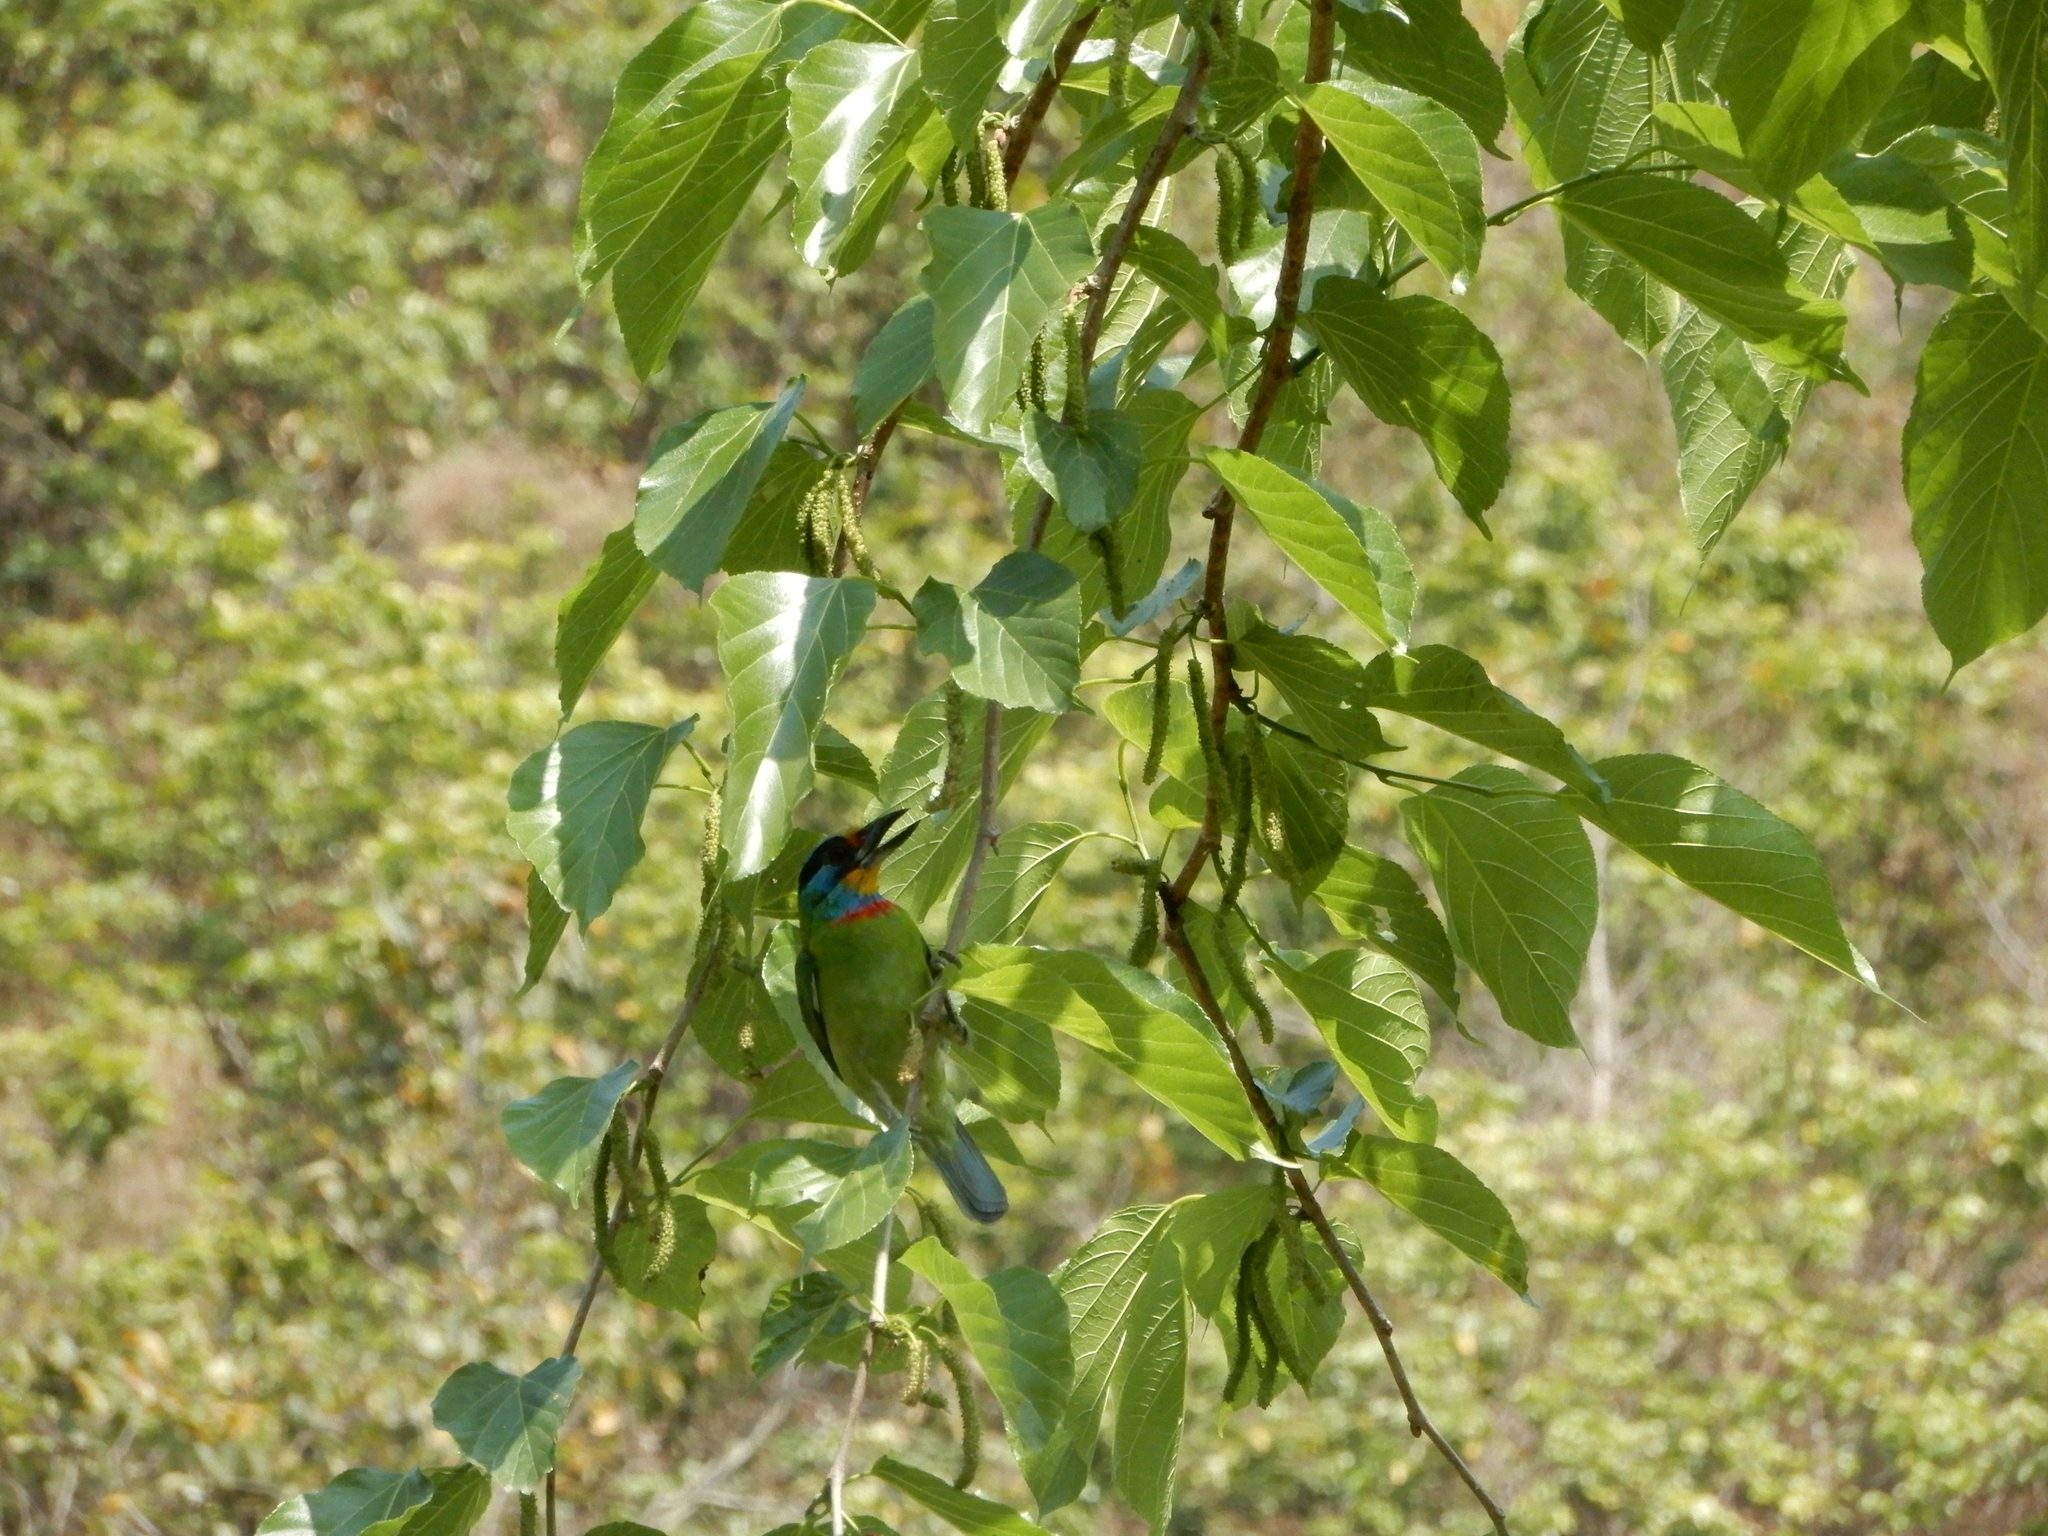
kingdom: Animalia
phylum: Chordata
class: Aves
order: Piciformes
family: Megalaimidae
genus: Psilopogon
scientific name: Psilopogon nuchalis
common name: Taiwan barbet
